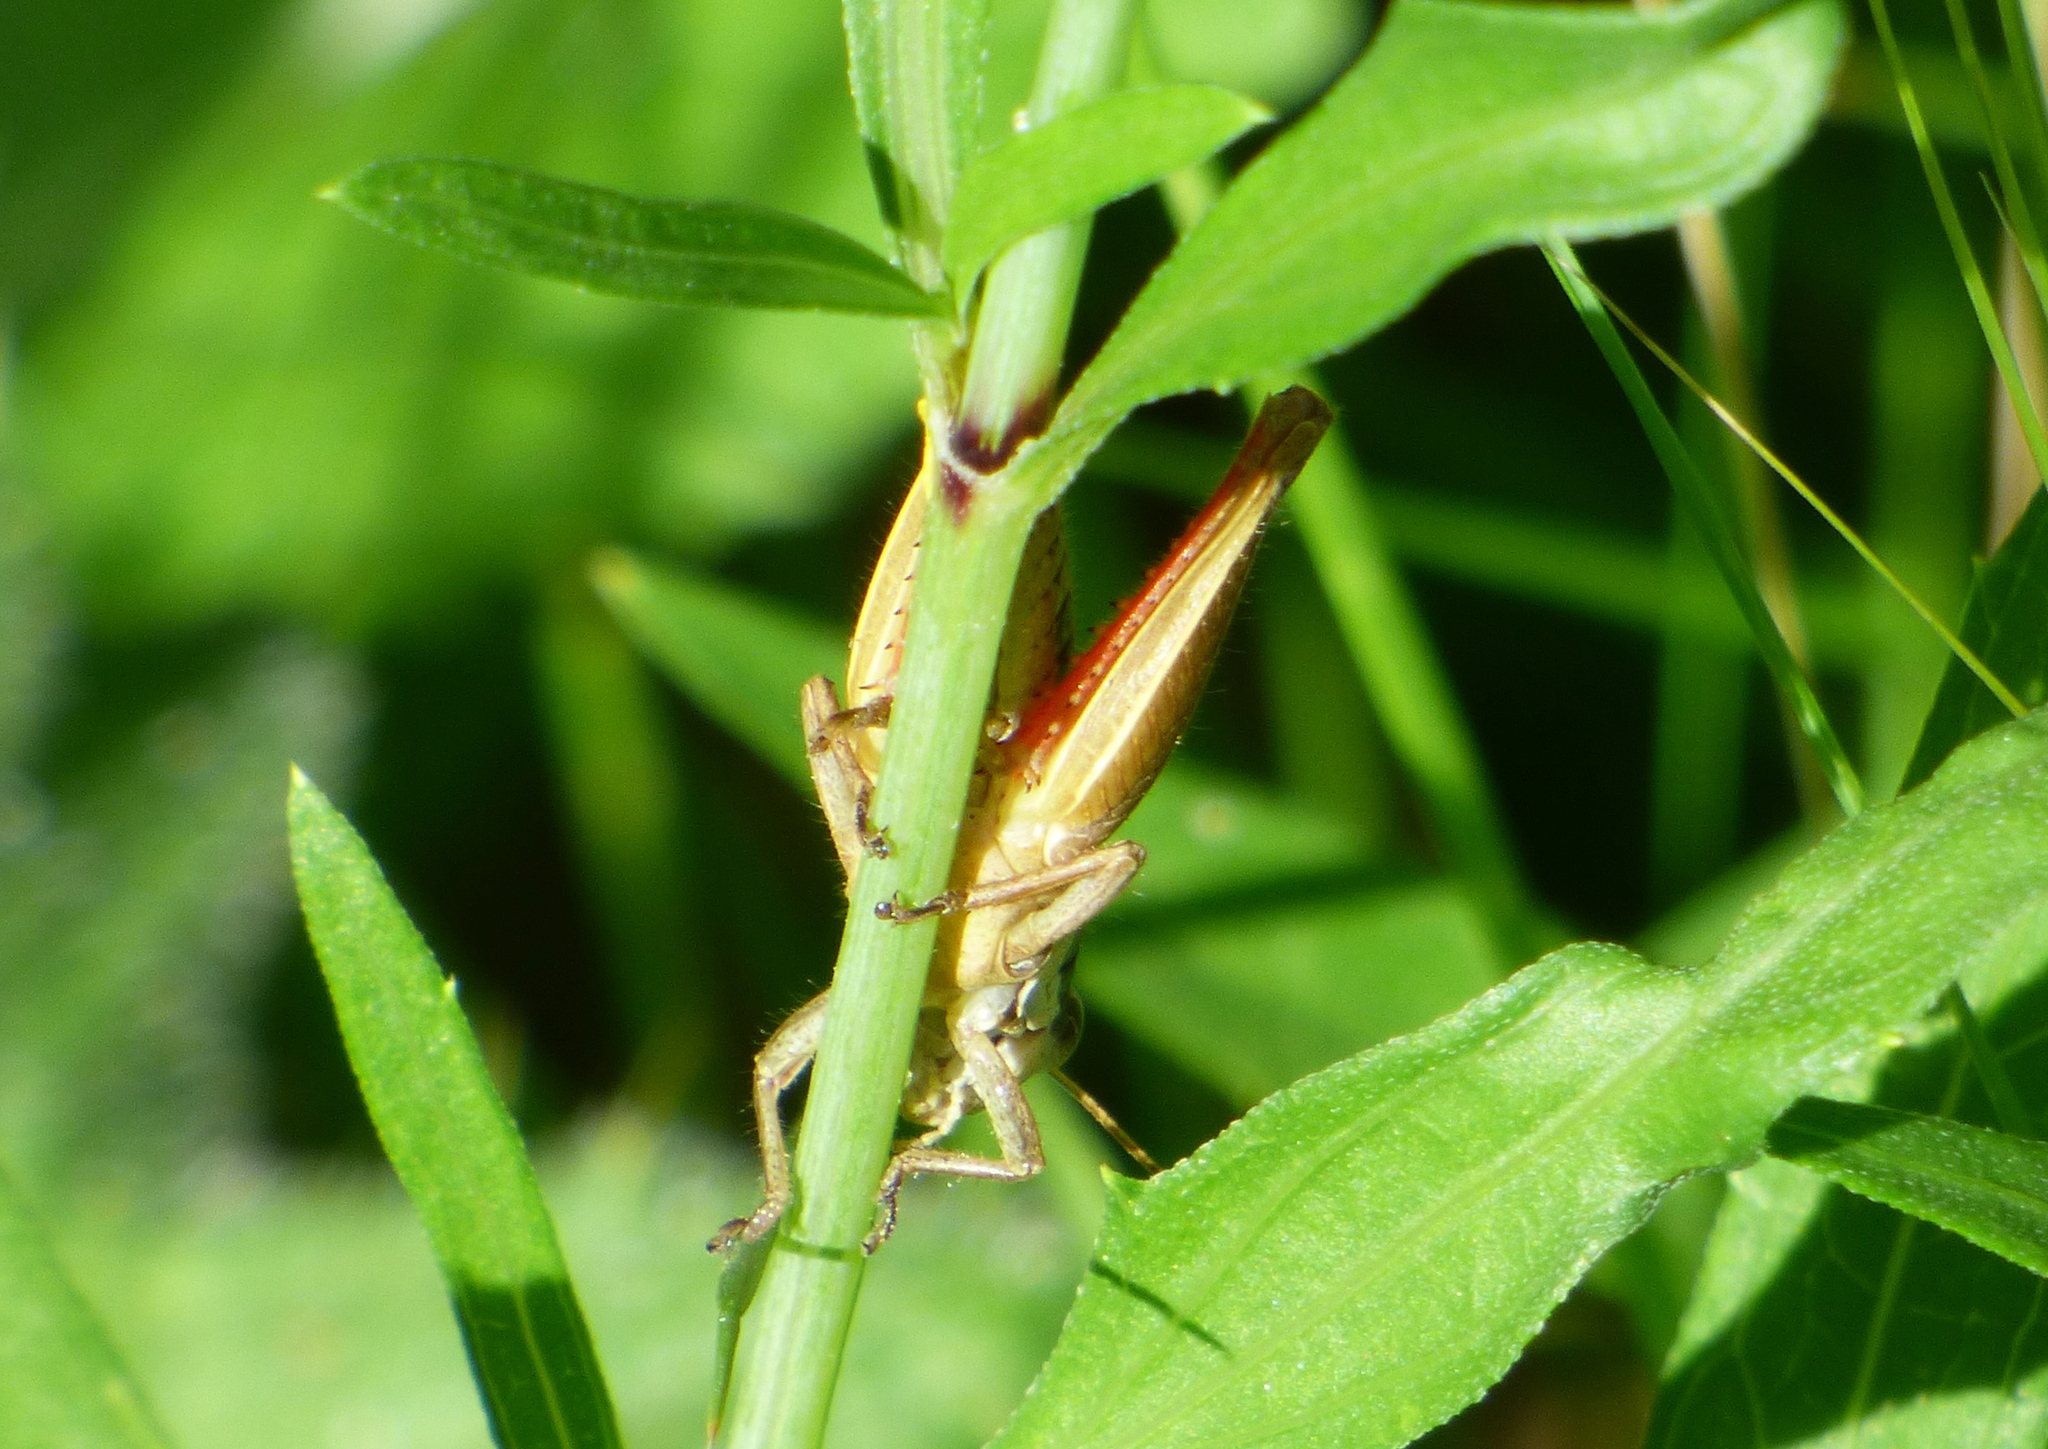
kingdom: Animalia
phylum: Arthropoda
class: Insecta
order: Orthoptera
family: Acrididae
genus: Scotussa
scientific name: Scotussa lemniscata
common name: Slender orange-legged grasshopper
